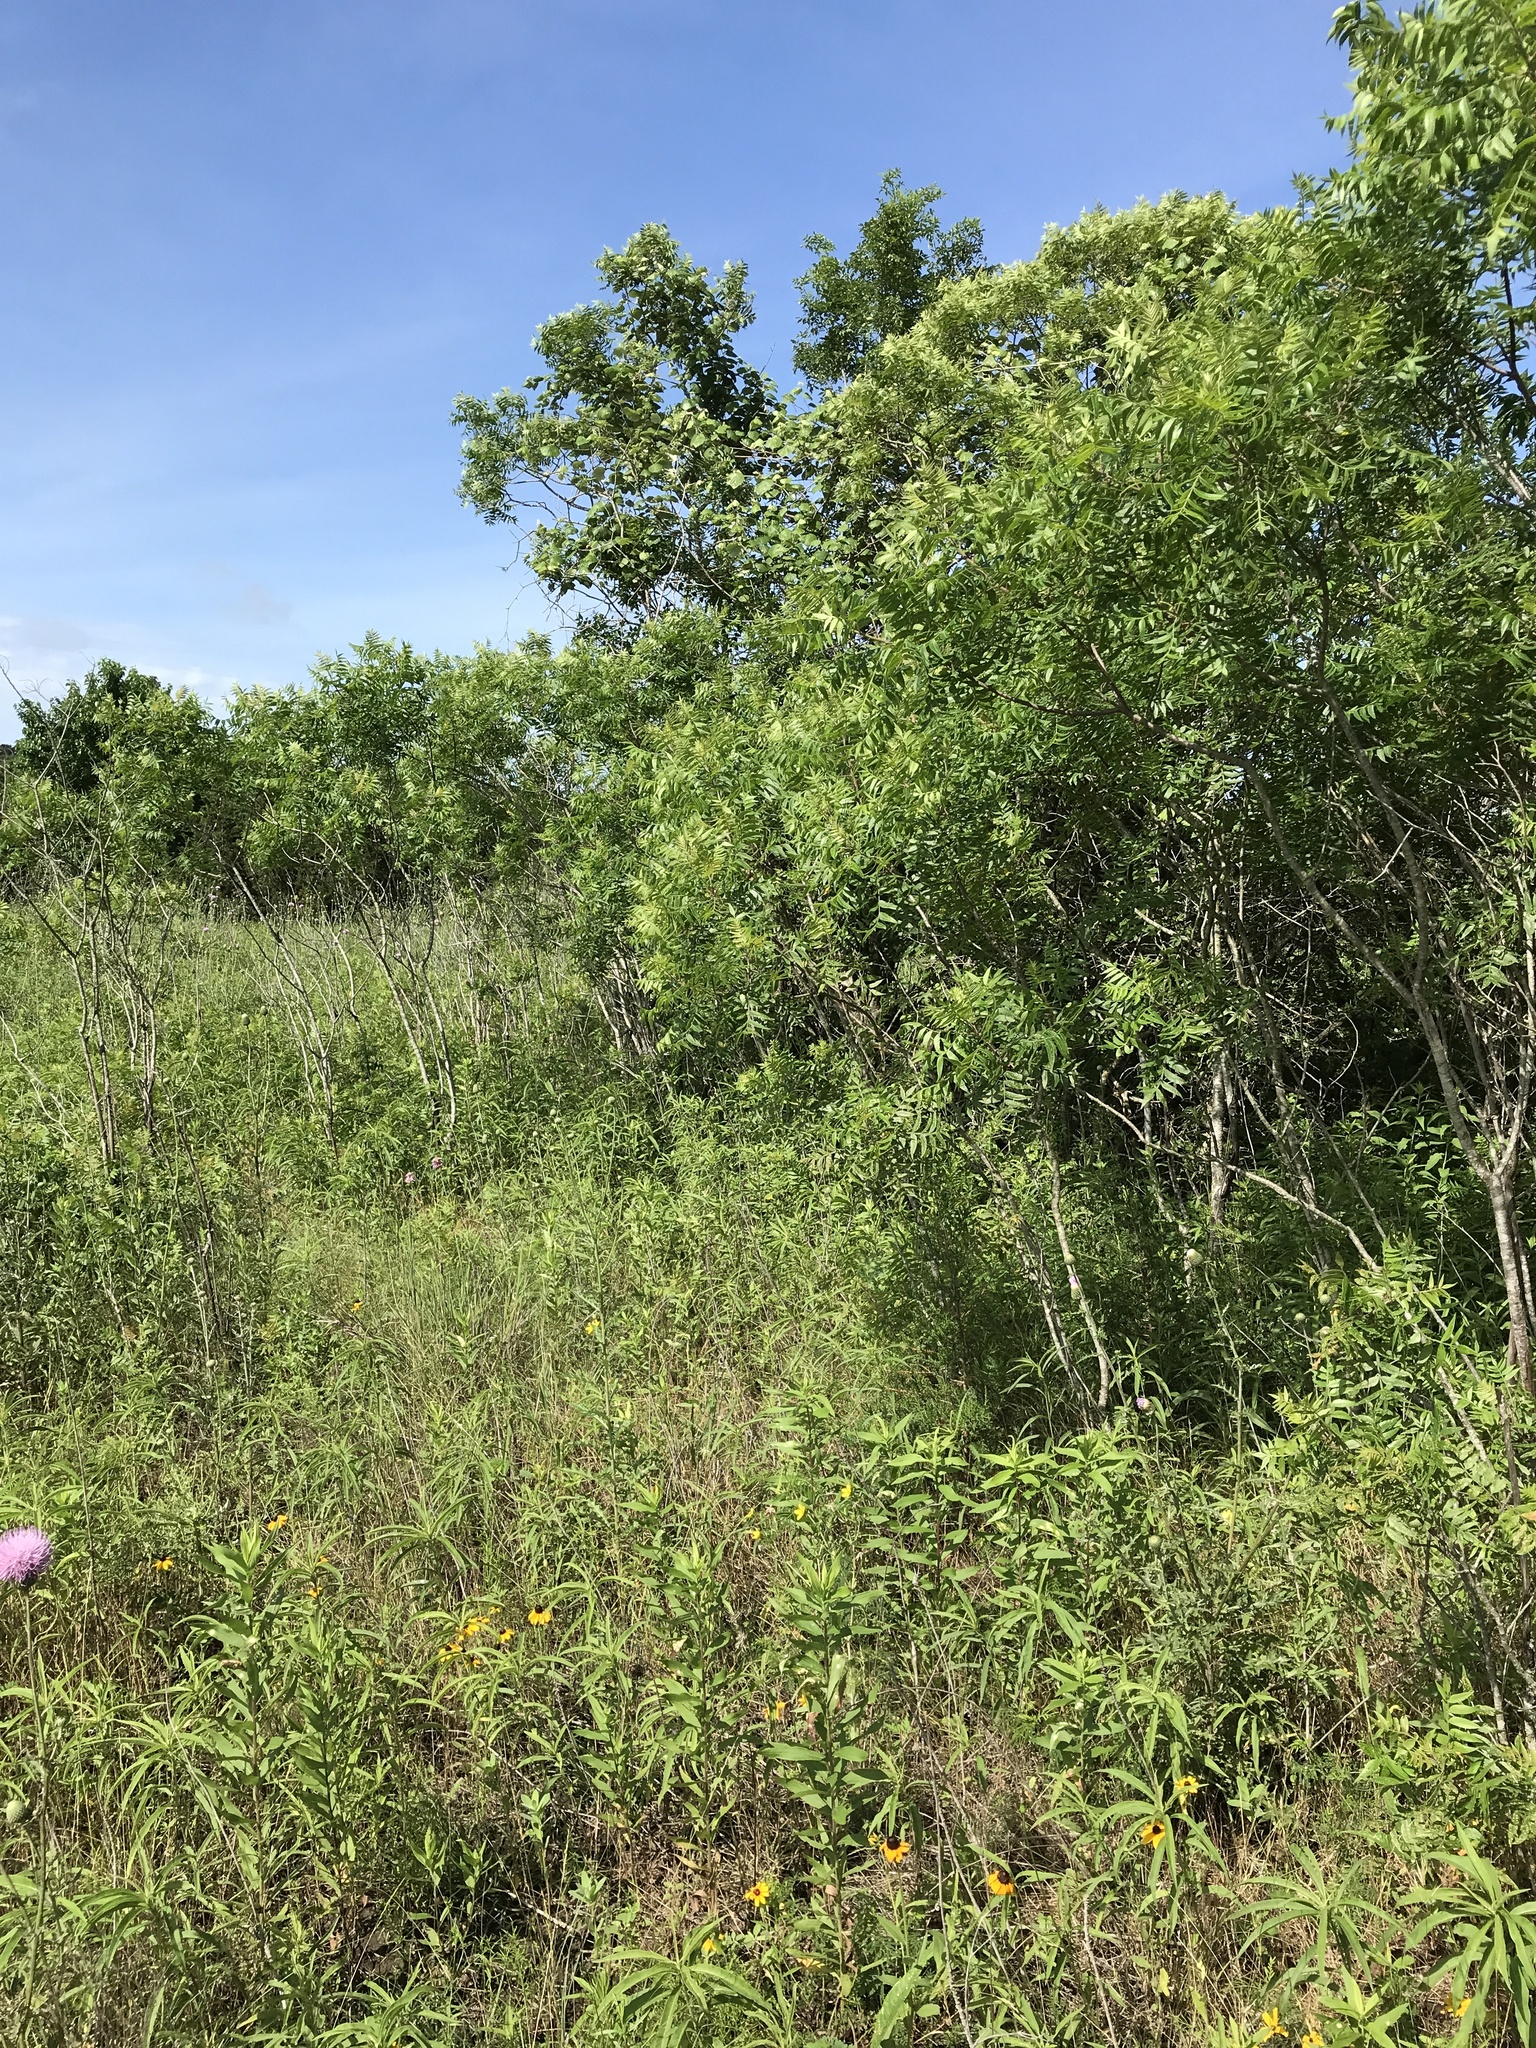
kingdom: Plantae
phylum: Tracheophyta
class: Magnoliopsida
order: Sapindales
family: Anacardiaceae
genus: Rhus
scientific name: Rhus lanceolata
